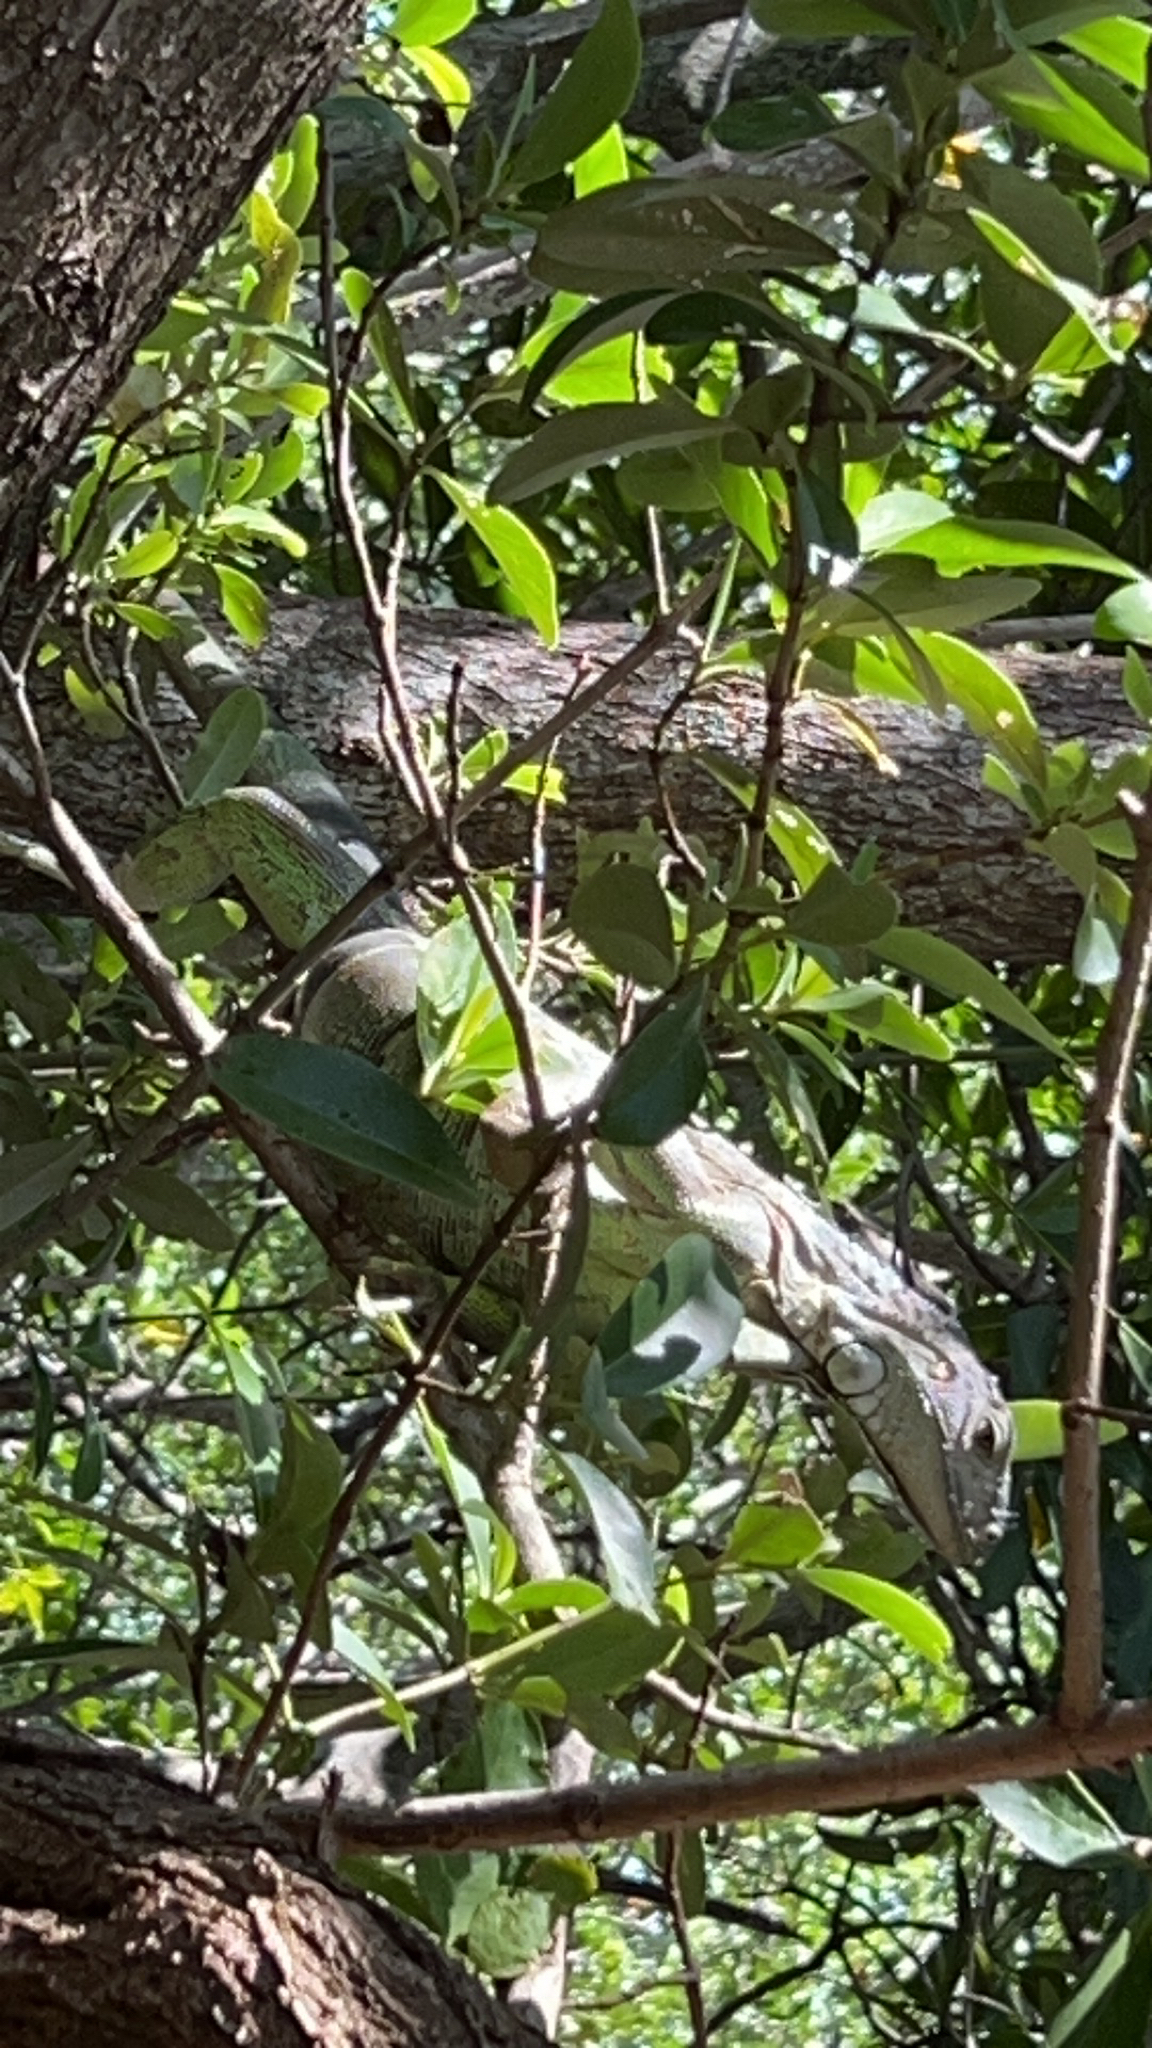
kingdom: Animalia
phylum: Chordata
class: Squamata
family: Iguanidae
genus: Iguana
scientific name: Iguana iguana
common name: Green iguana
